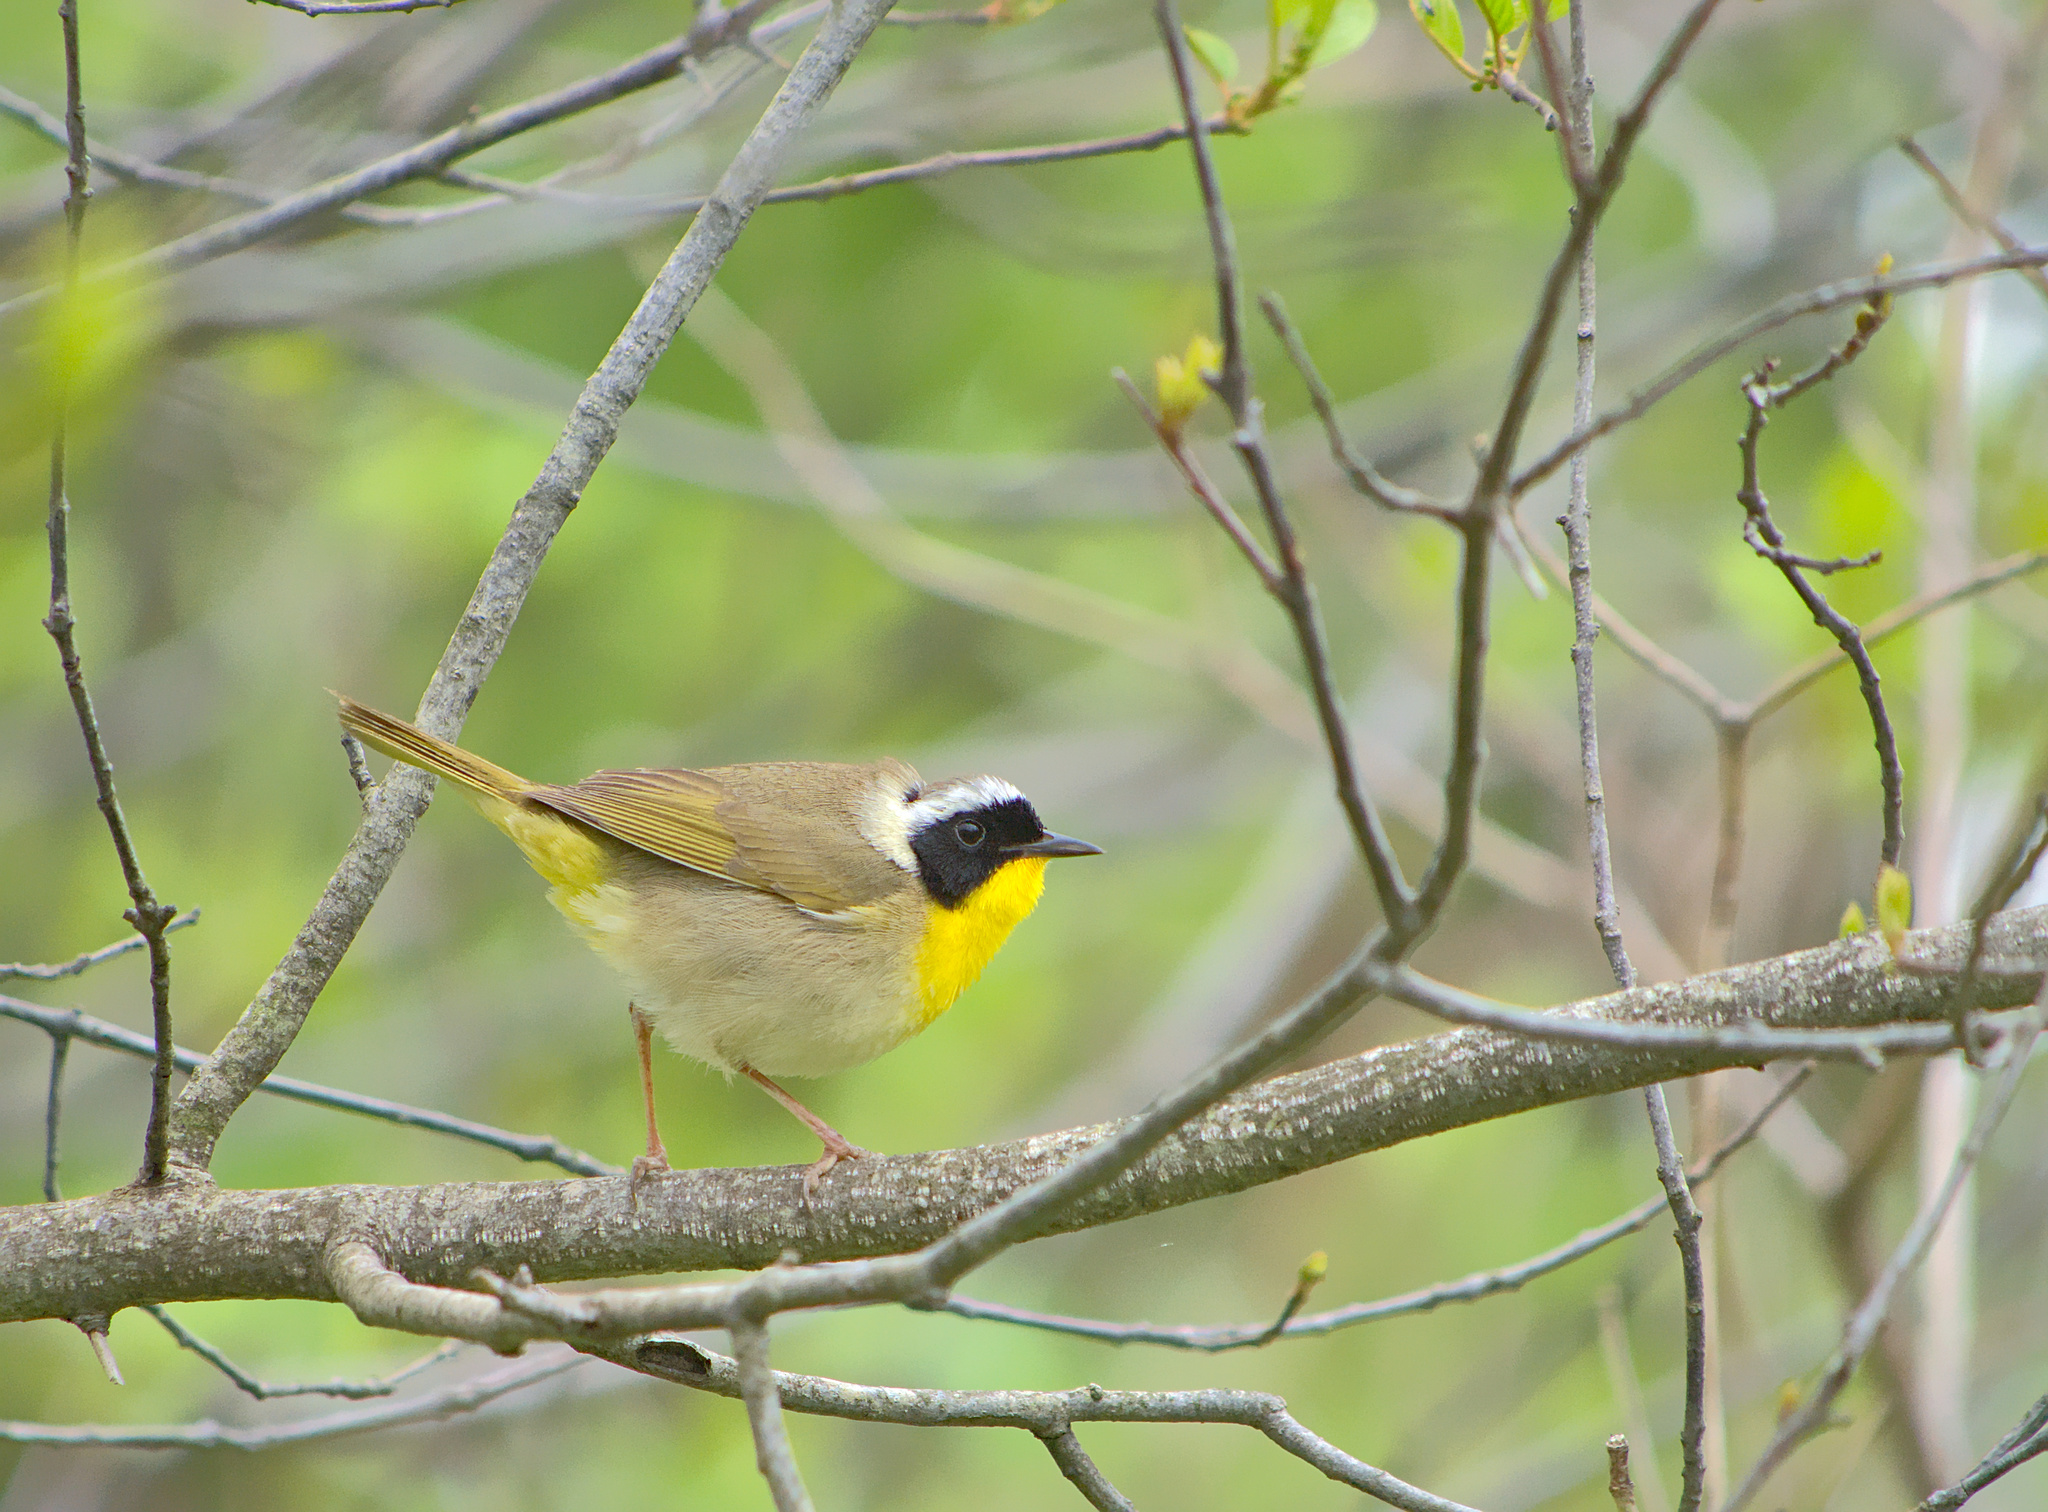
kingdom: Animalia
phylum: Chordata
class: Aves
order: Passeriformes
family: Parulidae
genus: Geothlypis
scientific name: Geothlypis trichas
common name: Common yellowthroat
